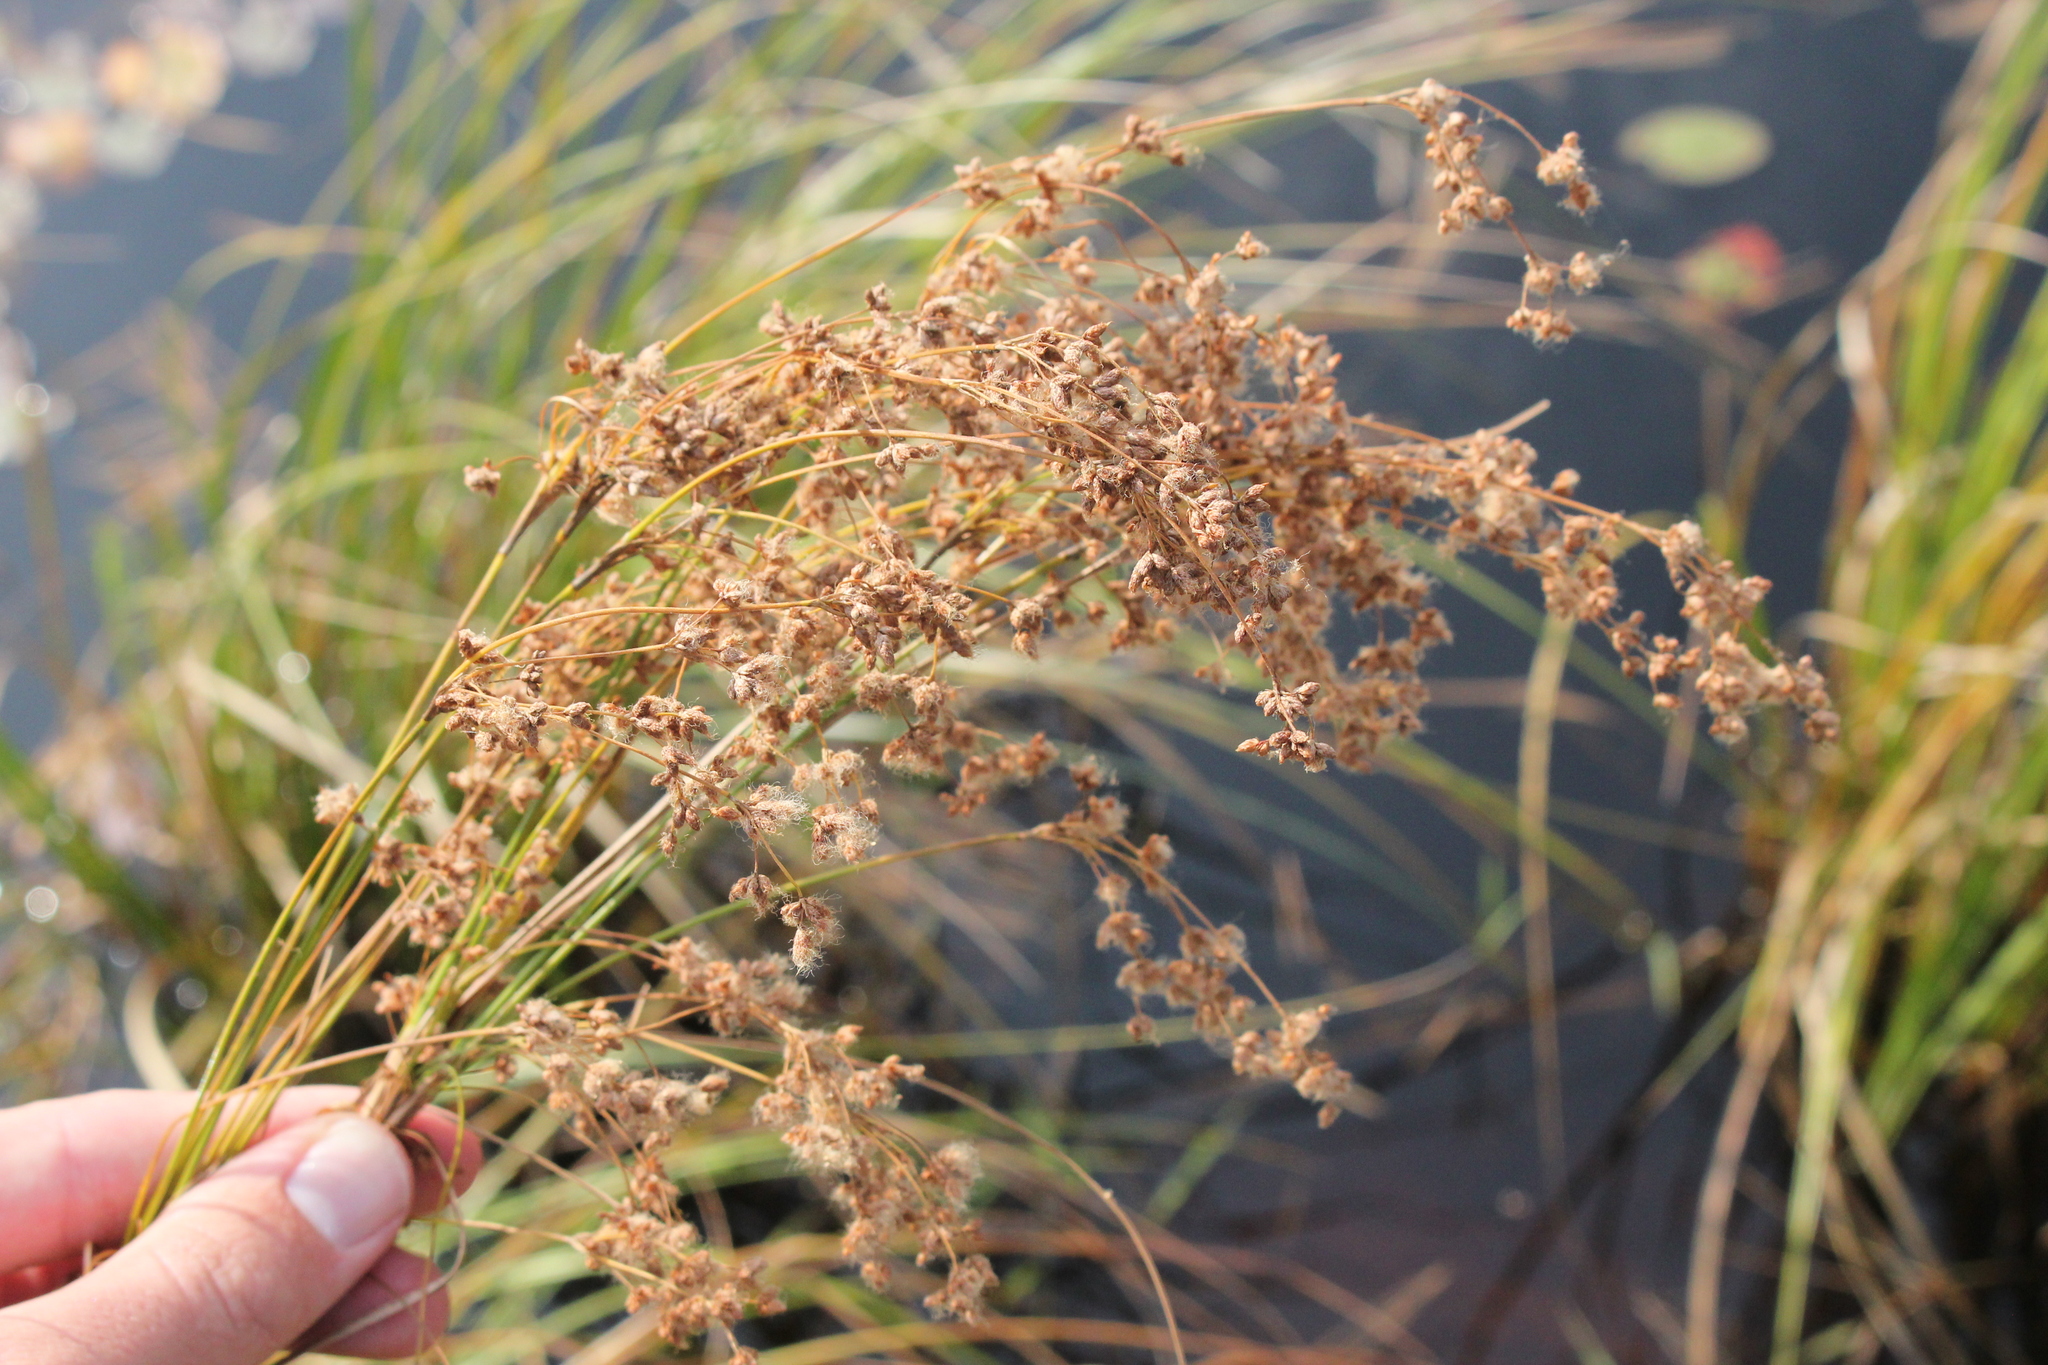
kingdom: Plantae
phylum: Tracheophyta
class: Liliopsida
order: Poales
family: Cyperaceae
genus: Scirpus
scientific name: Scirpus cyperinus
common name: Black-sheathed bulrush
